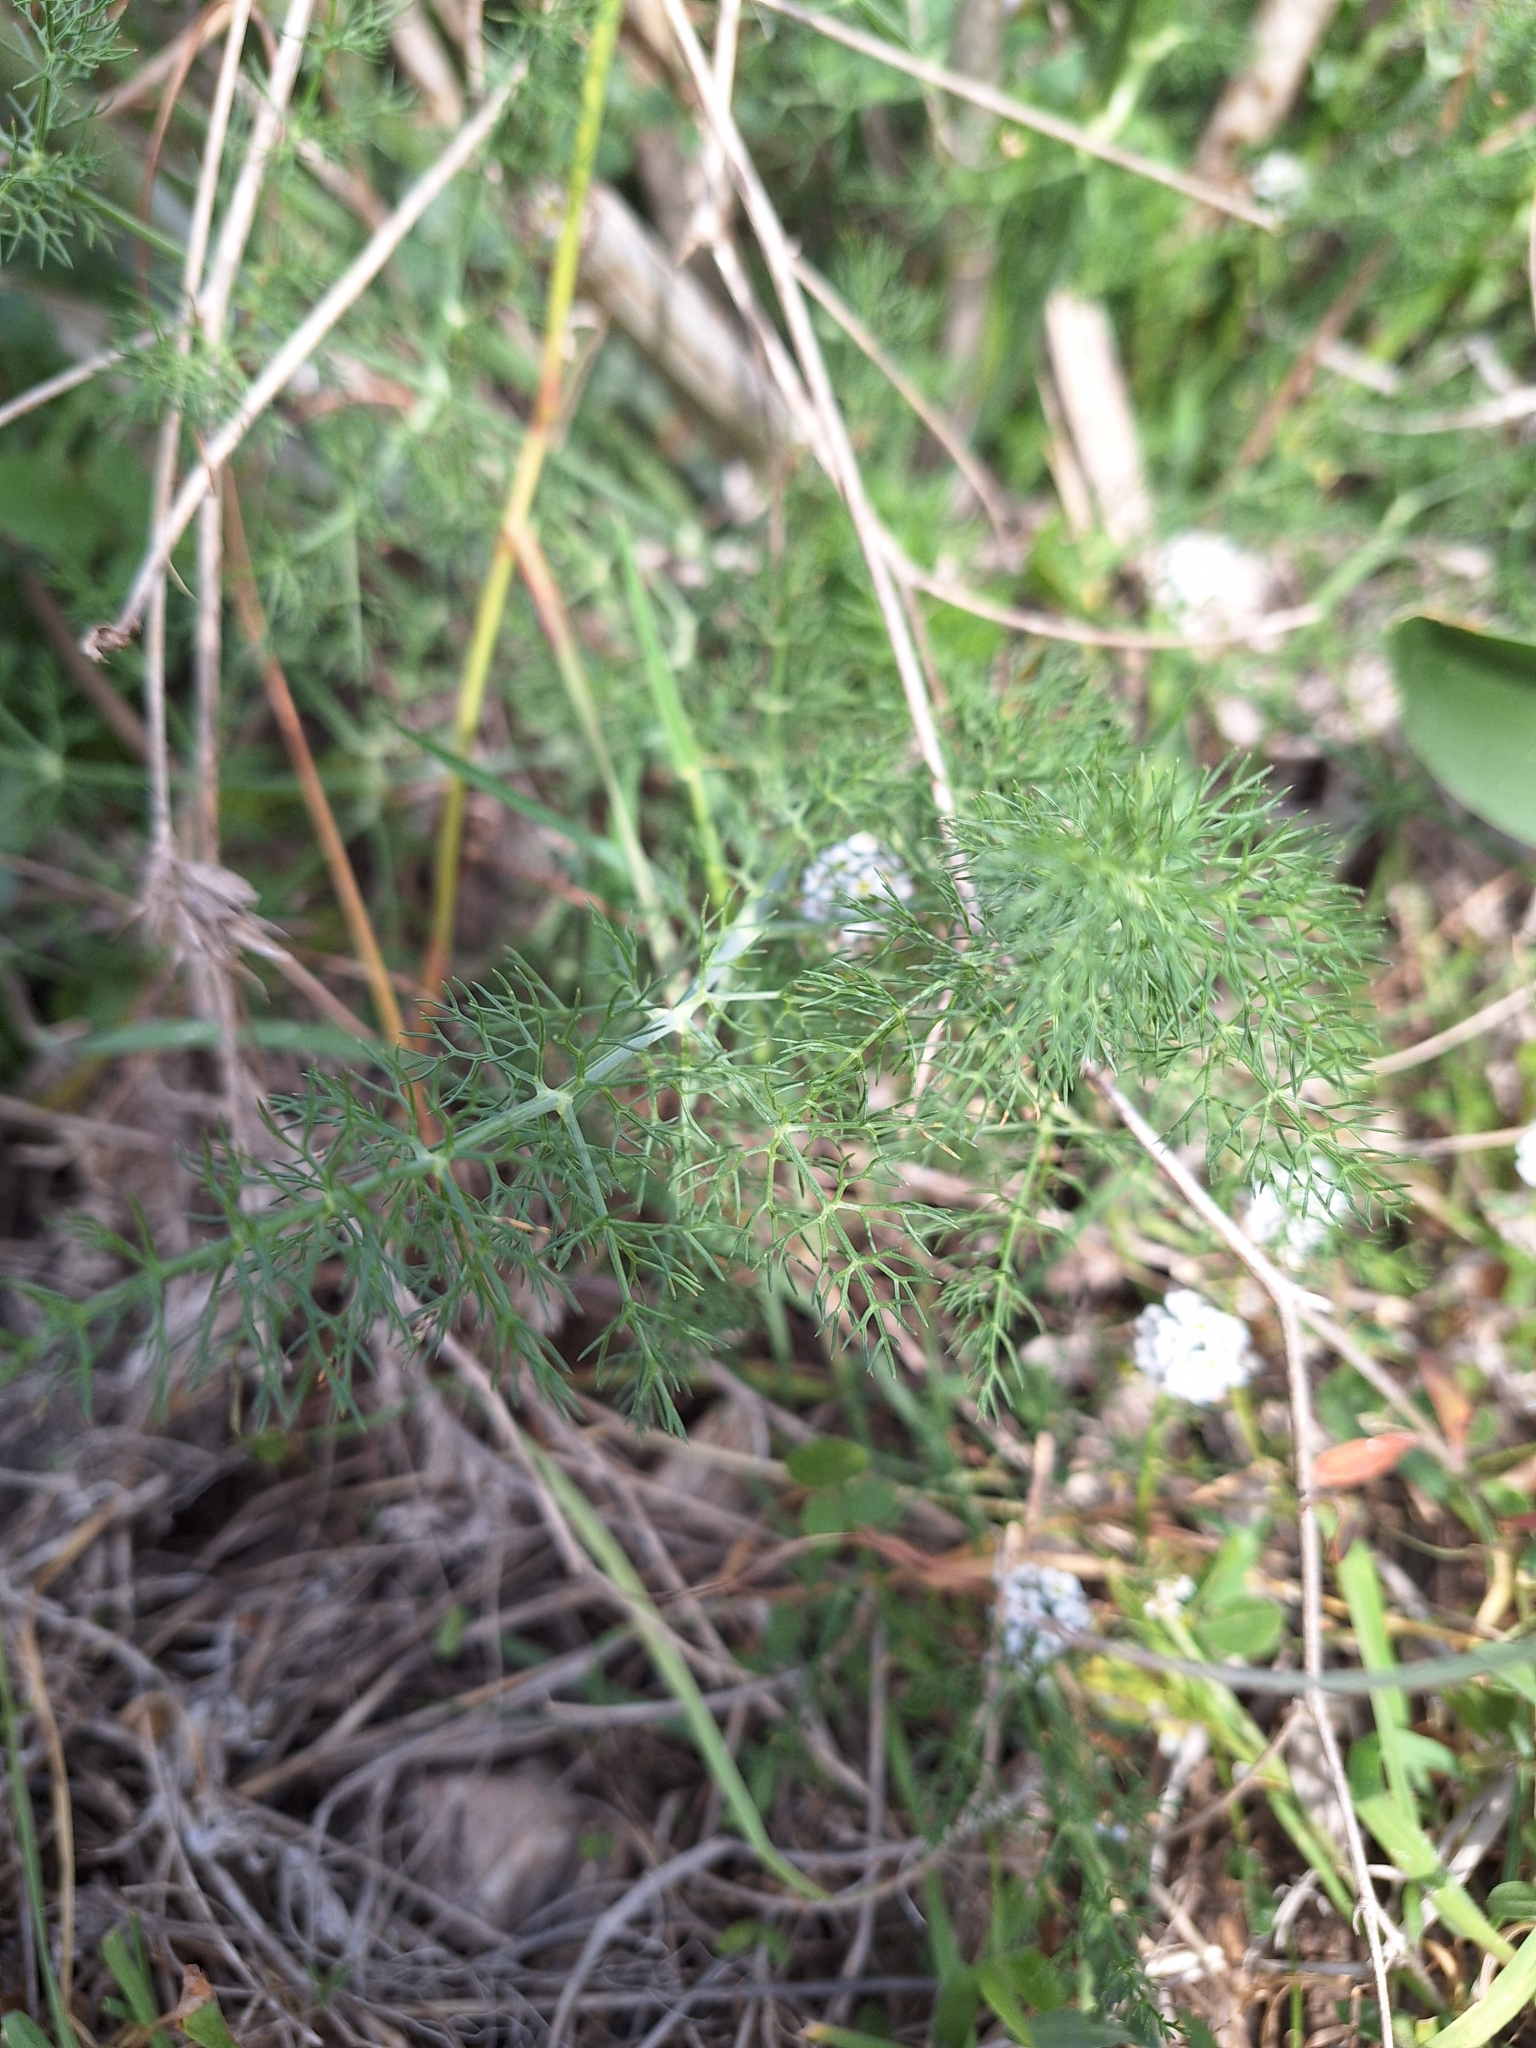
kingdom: Plantae
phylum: Tracheophyta
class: Magnoliopsida
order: Apiales
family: Apiaceae
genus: Foeniculum
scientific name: Foeniculum vulgare
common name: Fennel
